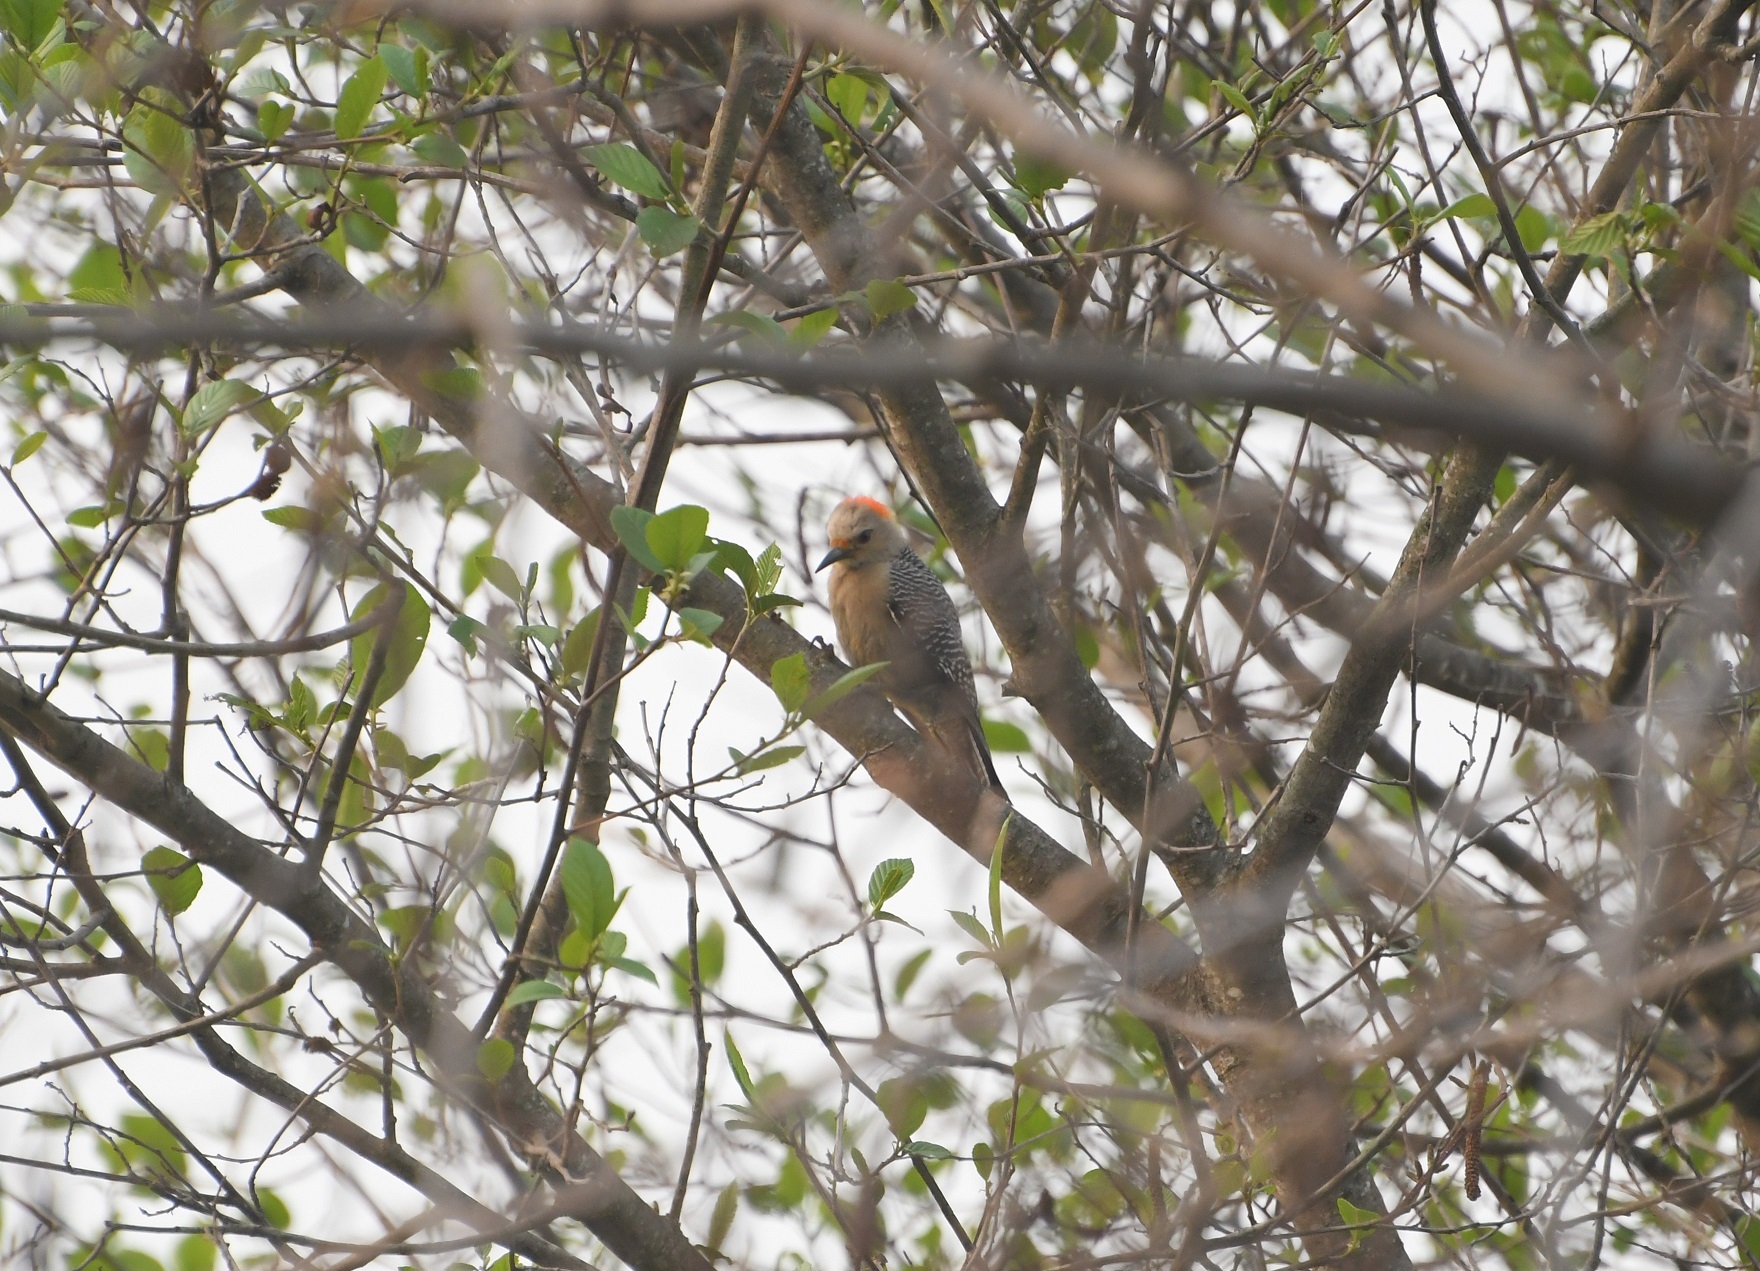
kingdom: Animalia
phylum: Chordata
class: Aves
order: Piciformes
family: Picidae
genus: Melanerpes
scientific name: Melanerpes aurifrons
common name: Golden-fronted woodpecker
